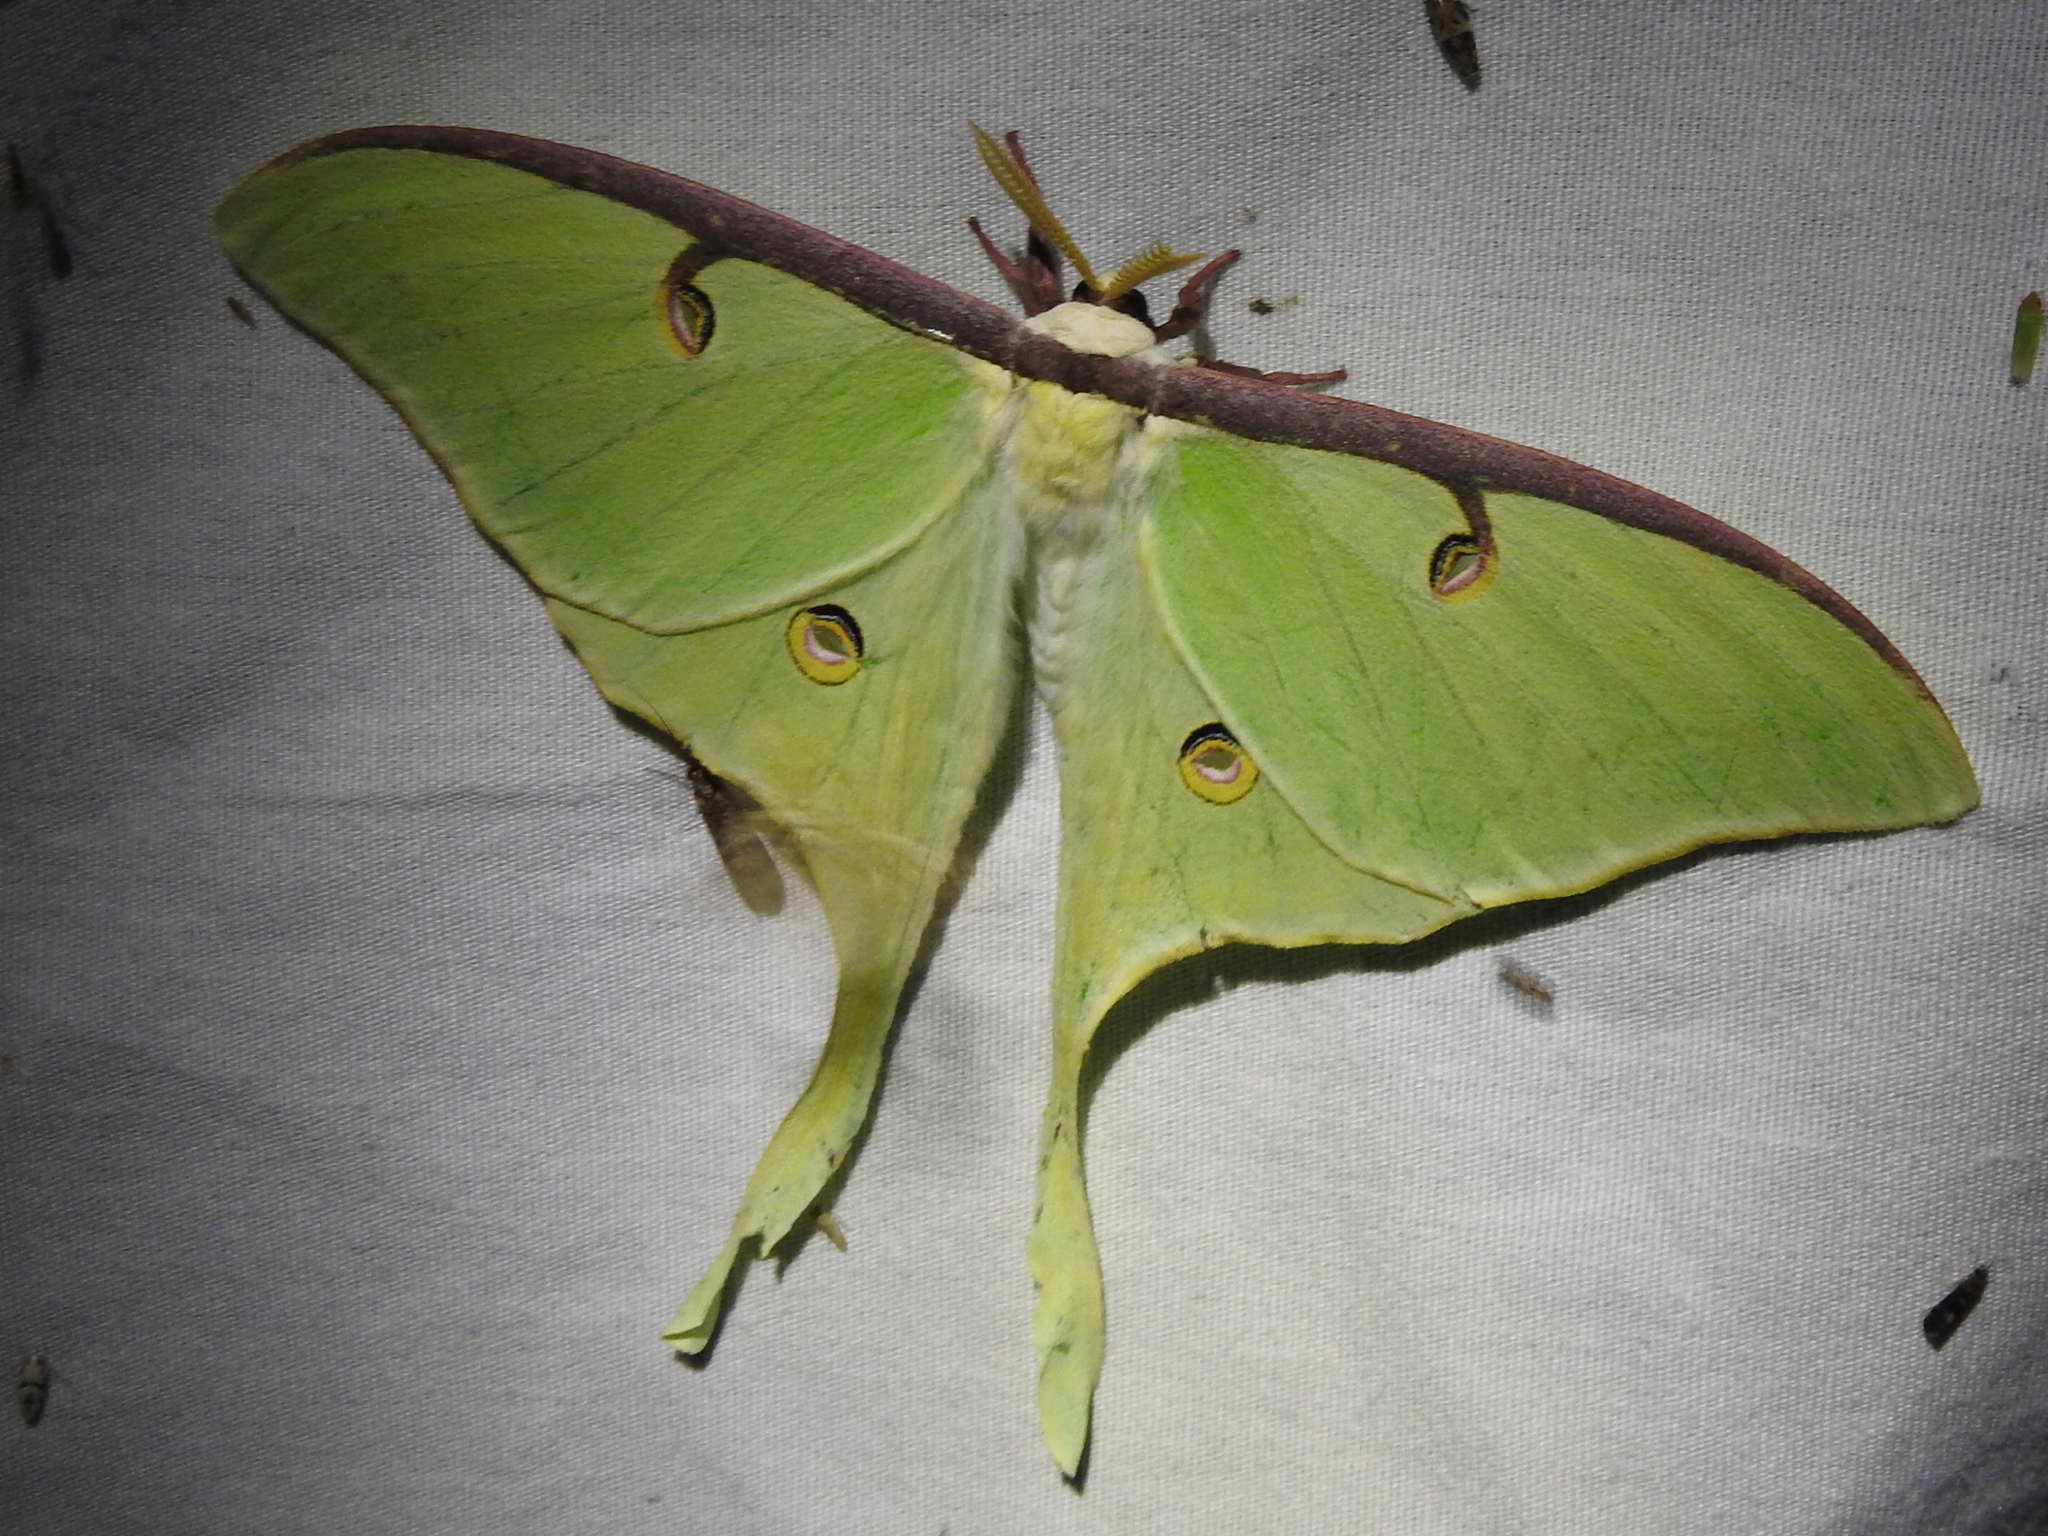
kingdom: Animalia
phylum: Arthropoda
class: Insecta
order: Lepidoptera
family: Saturniidae
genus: Actias
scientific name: Actias luna
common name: Luna moth
